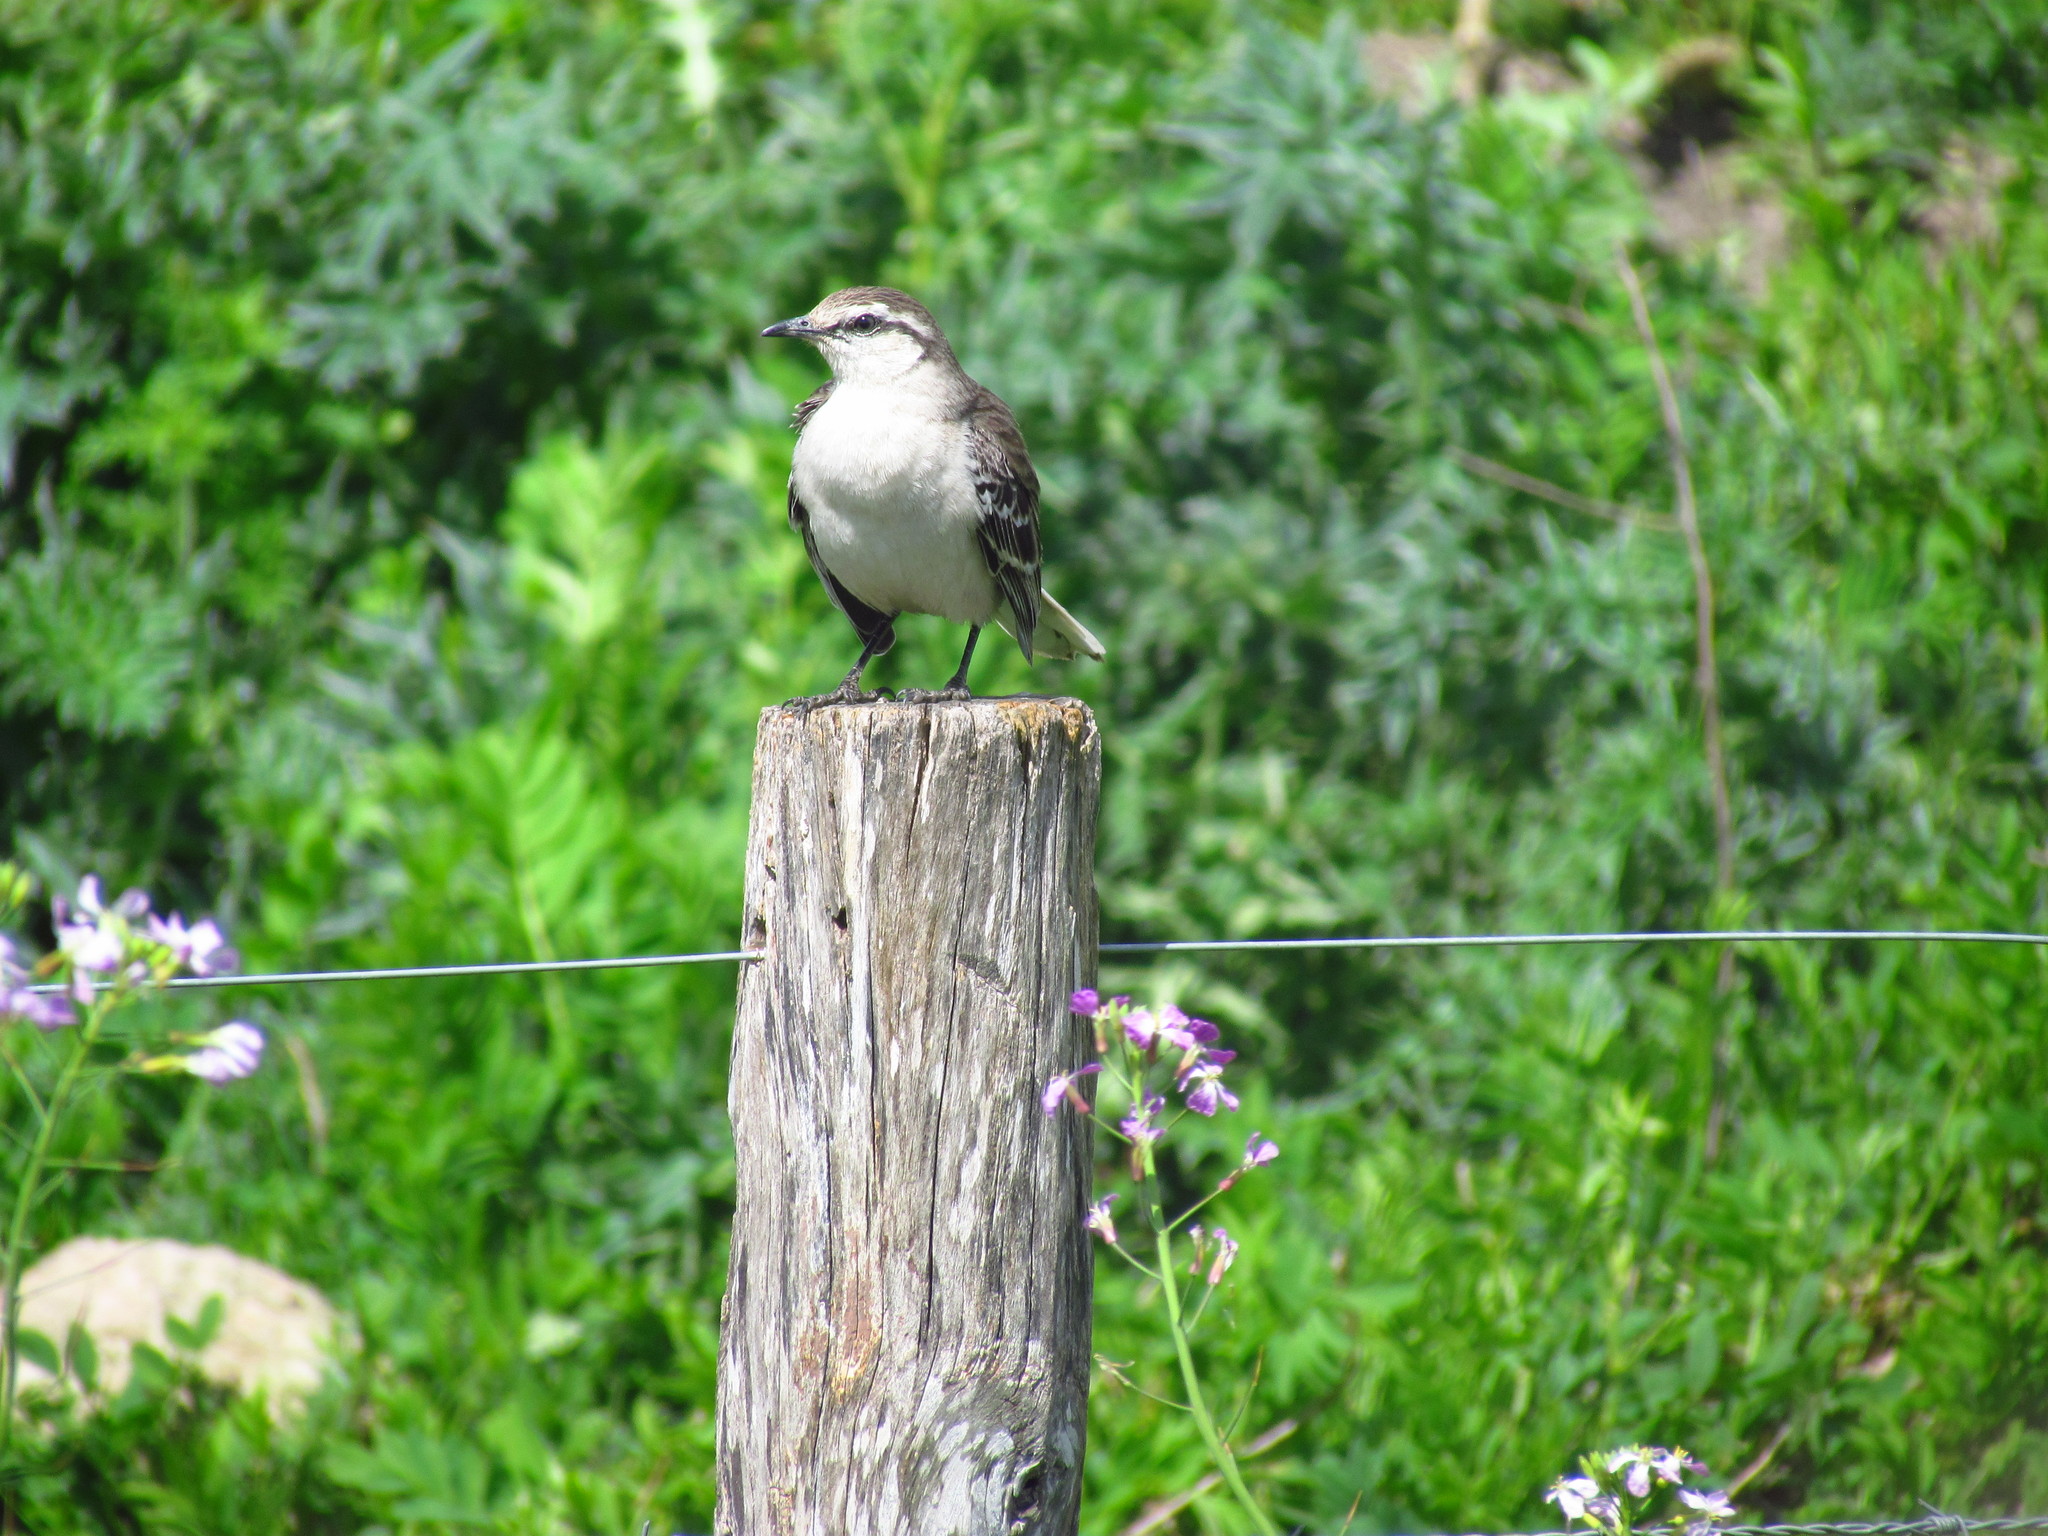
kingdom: Animalia
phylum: Chordata
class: Aves
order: Passeriformes
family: Mimidae
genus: Mimus
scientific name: Mimus saturninus
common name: Chalk-browed mockingbird
